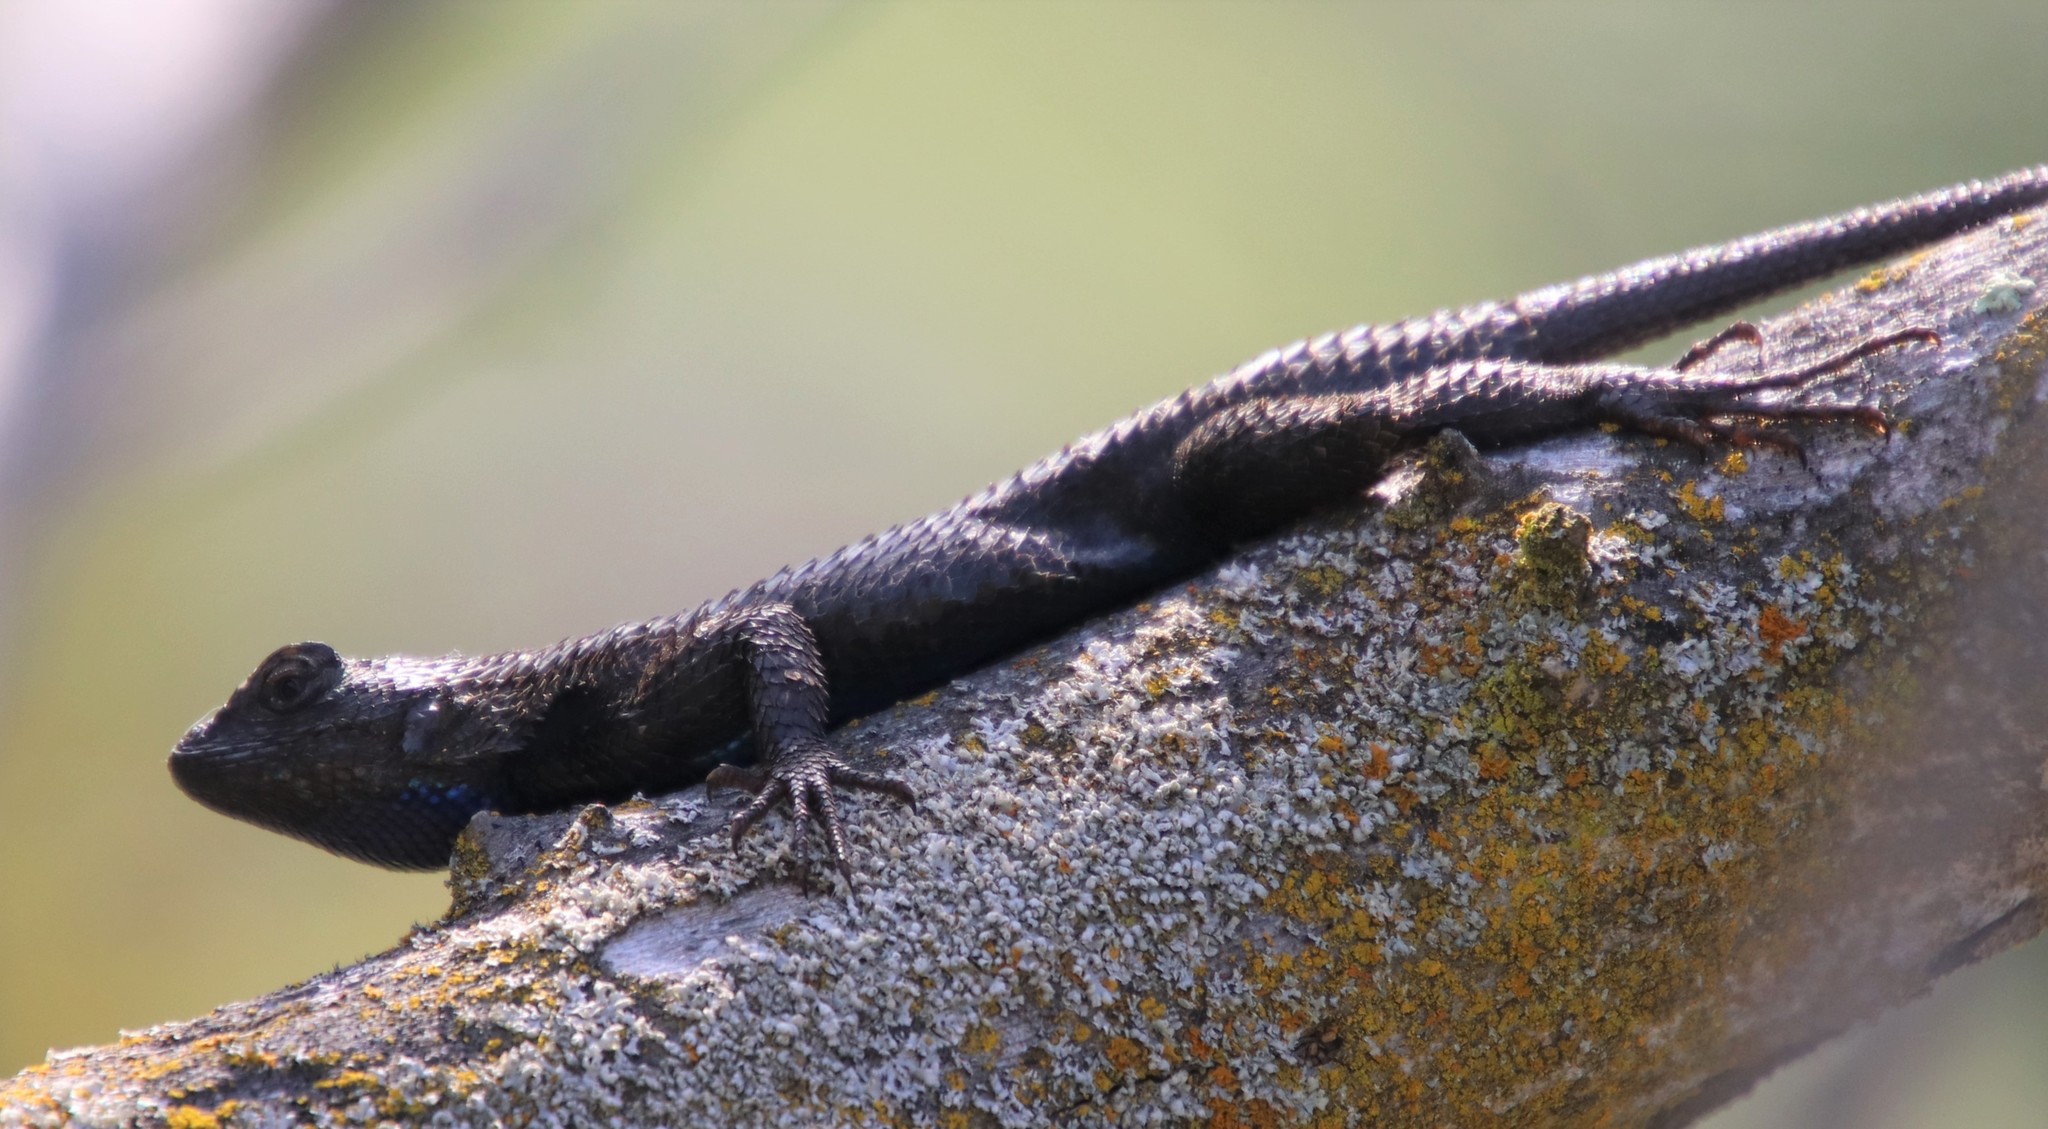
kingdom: Animalia
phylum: Chordata
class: Squamata
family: Phrynosomatidae
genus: Sceloporus
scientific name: Sceloporus occidentalis
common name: Western fence lizard
